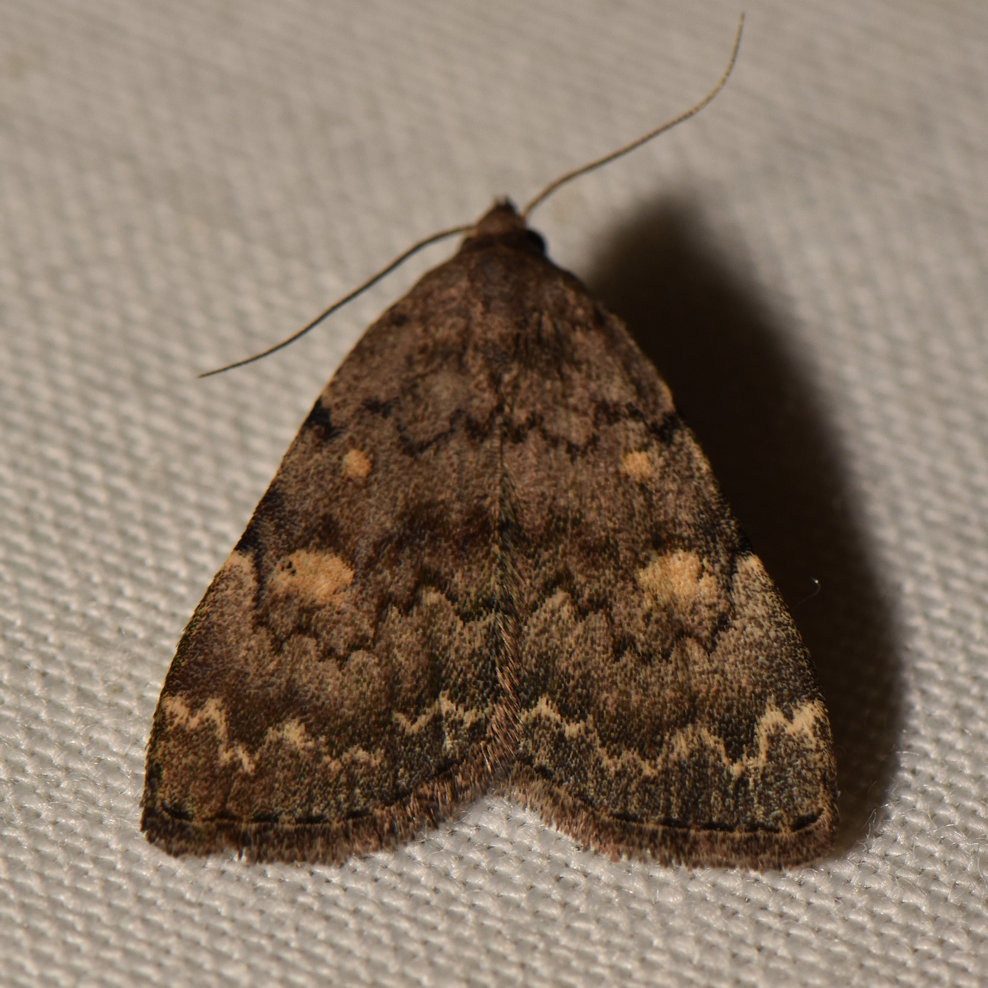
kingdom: Animalia
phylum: Arthropoda
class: Insecta
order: Lepidoptera
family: Erebidae
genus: Idia
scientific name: Idia aemula
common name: Common idia moth
